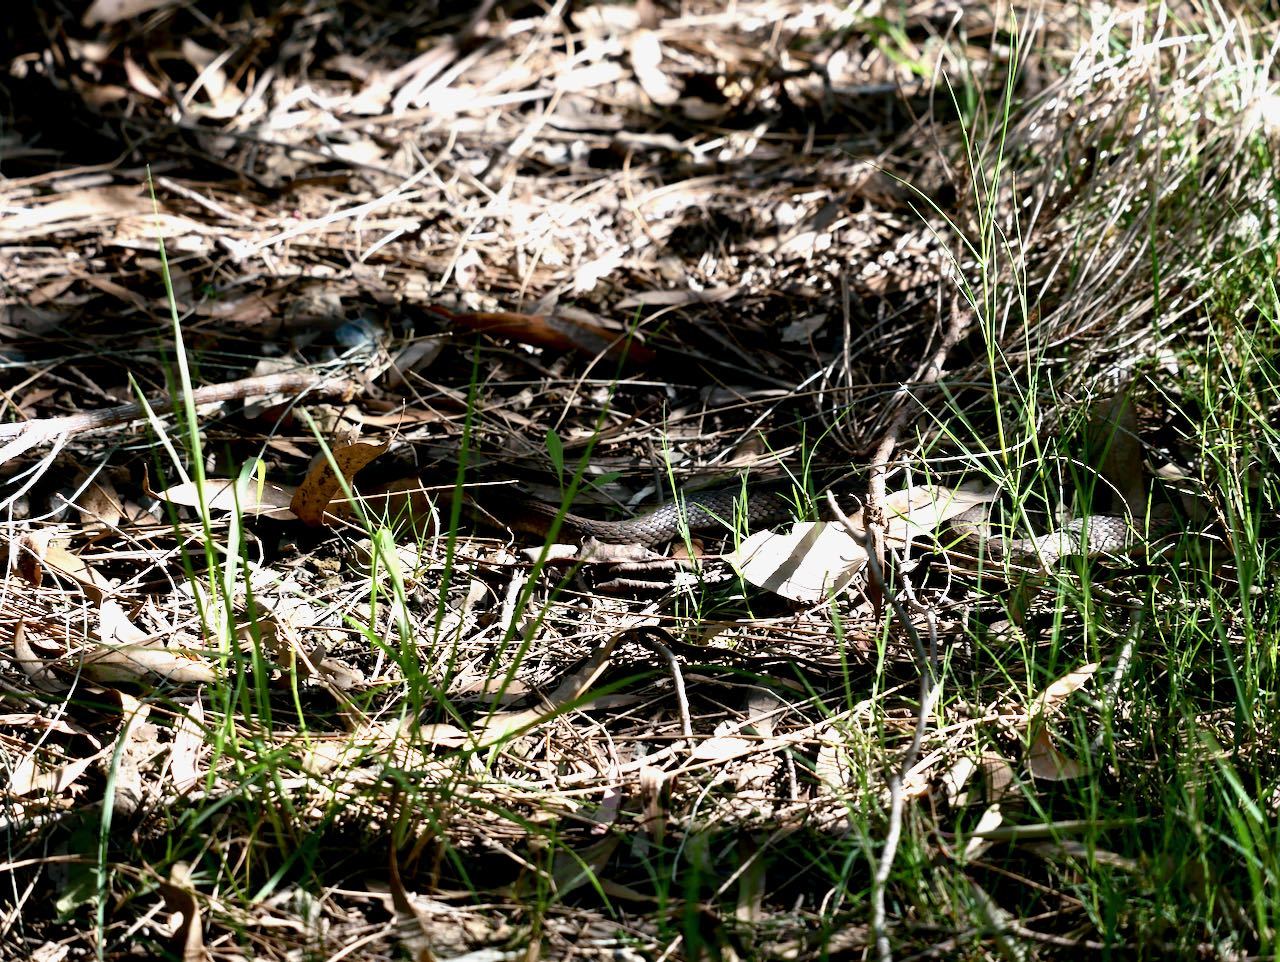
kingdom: Animalia
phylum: Chordata
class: Squamata
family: Colubridae
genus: Tropidonophis
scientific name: Tropidonophis mairii
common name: Common keelback
